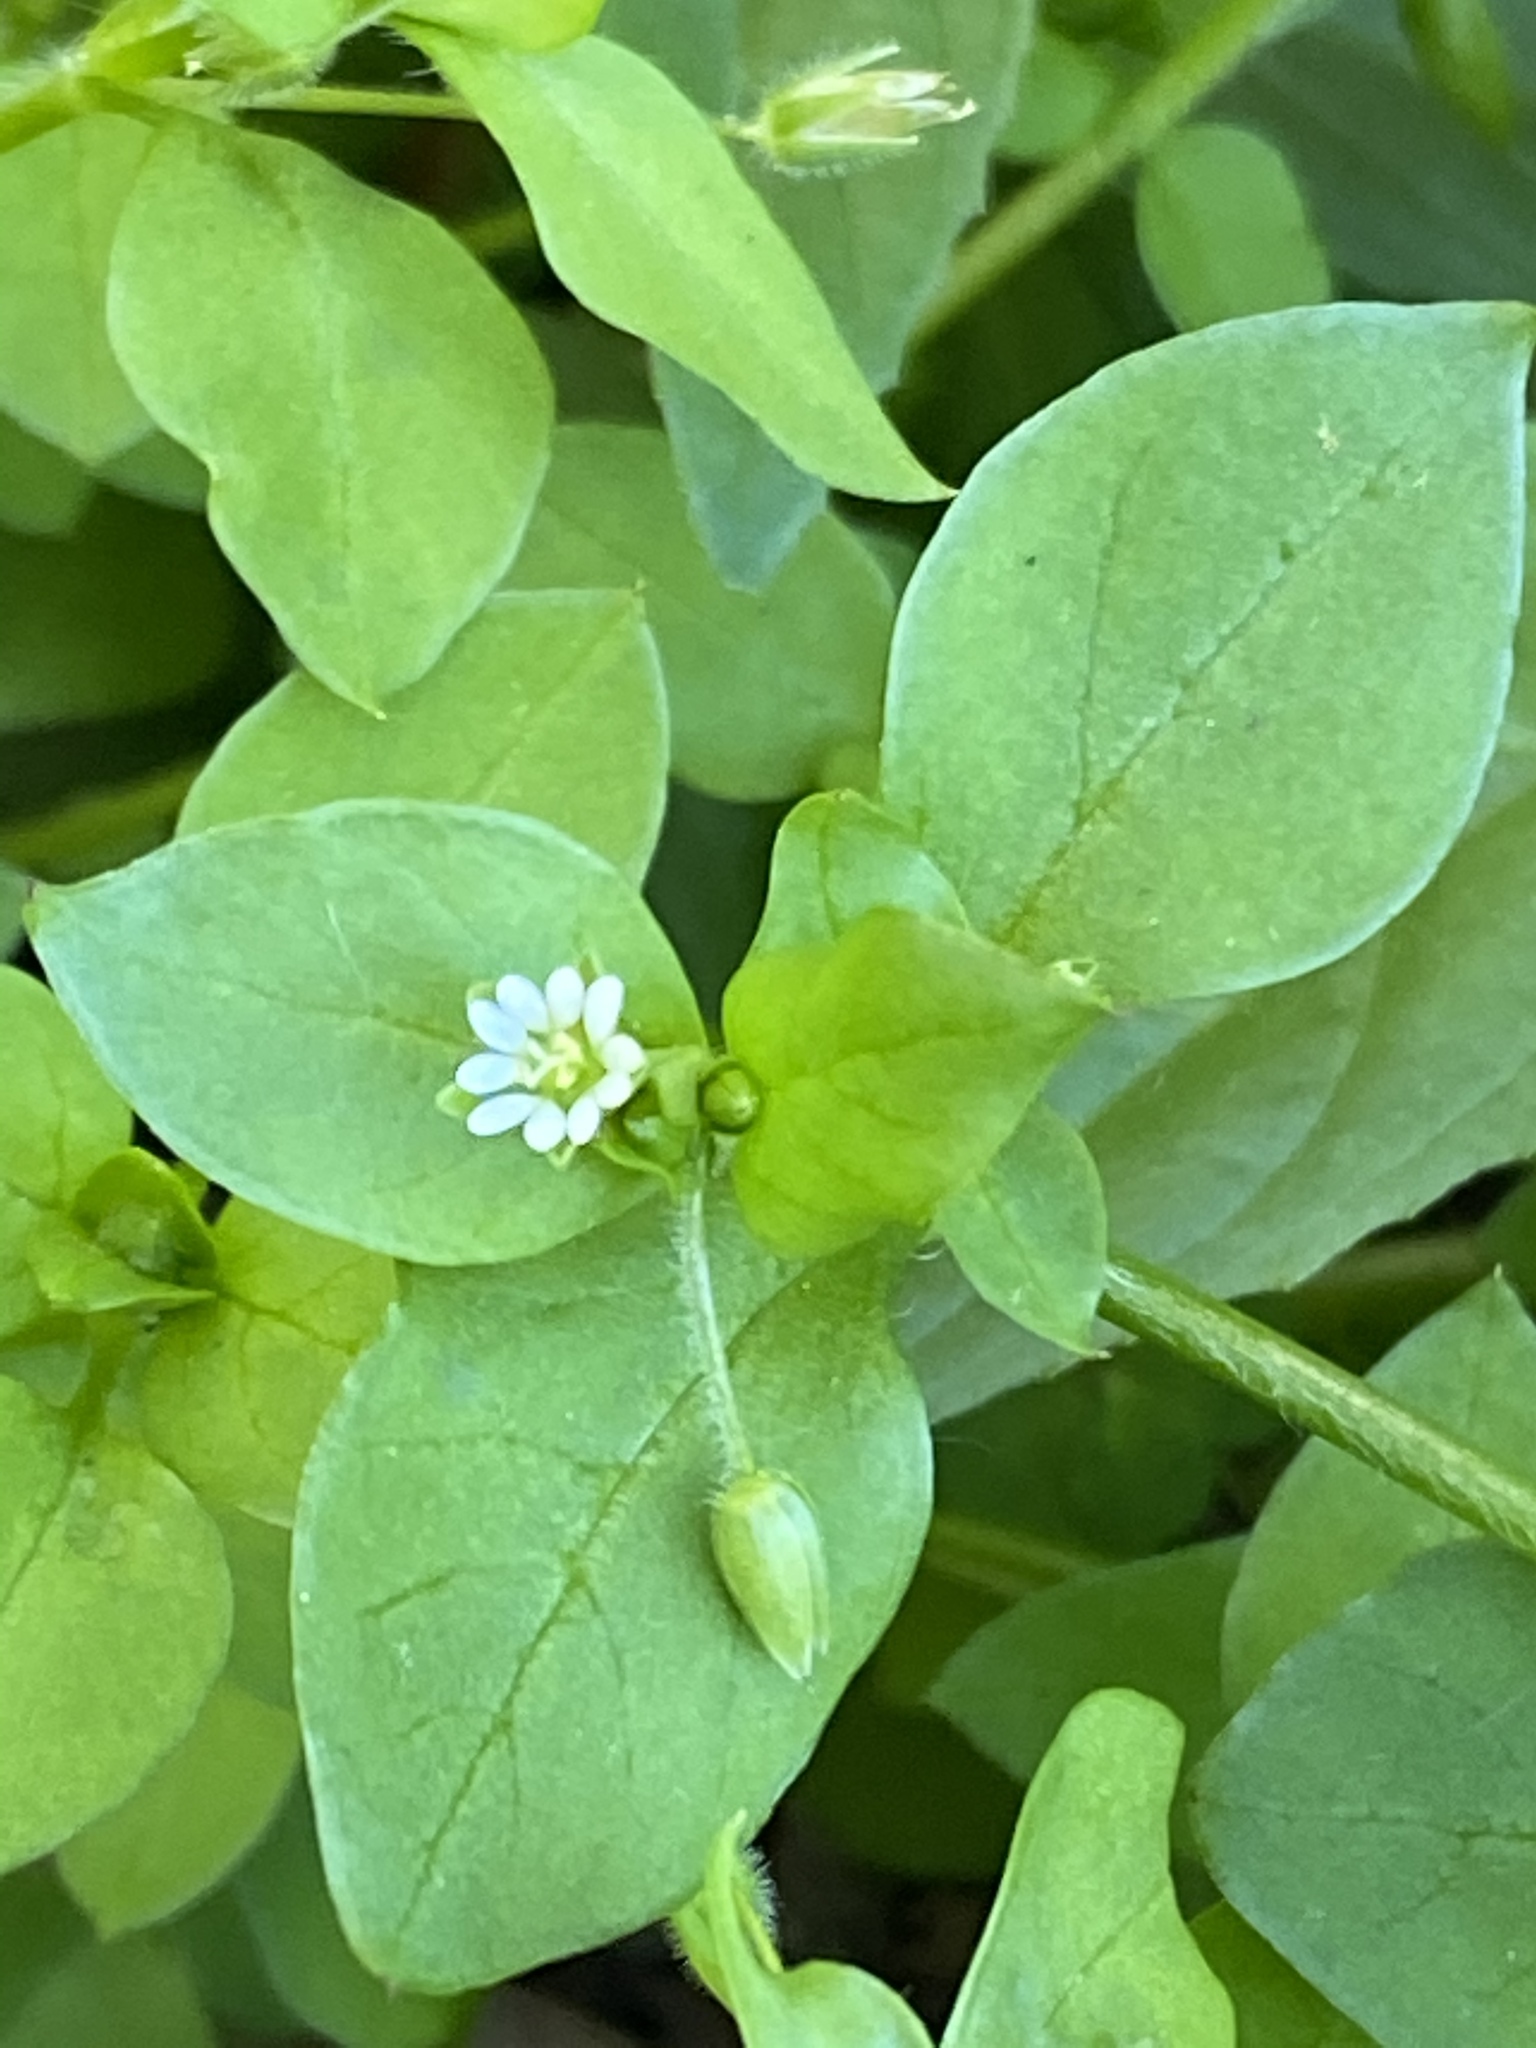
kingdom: Plantae
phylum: Tracheophyta
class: Magnoliopsida
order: Caryophyllales
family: Caryophyllaceae
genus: Stellaria
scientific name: Stellaria media
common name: Common chickweed
